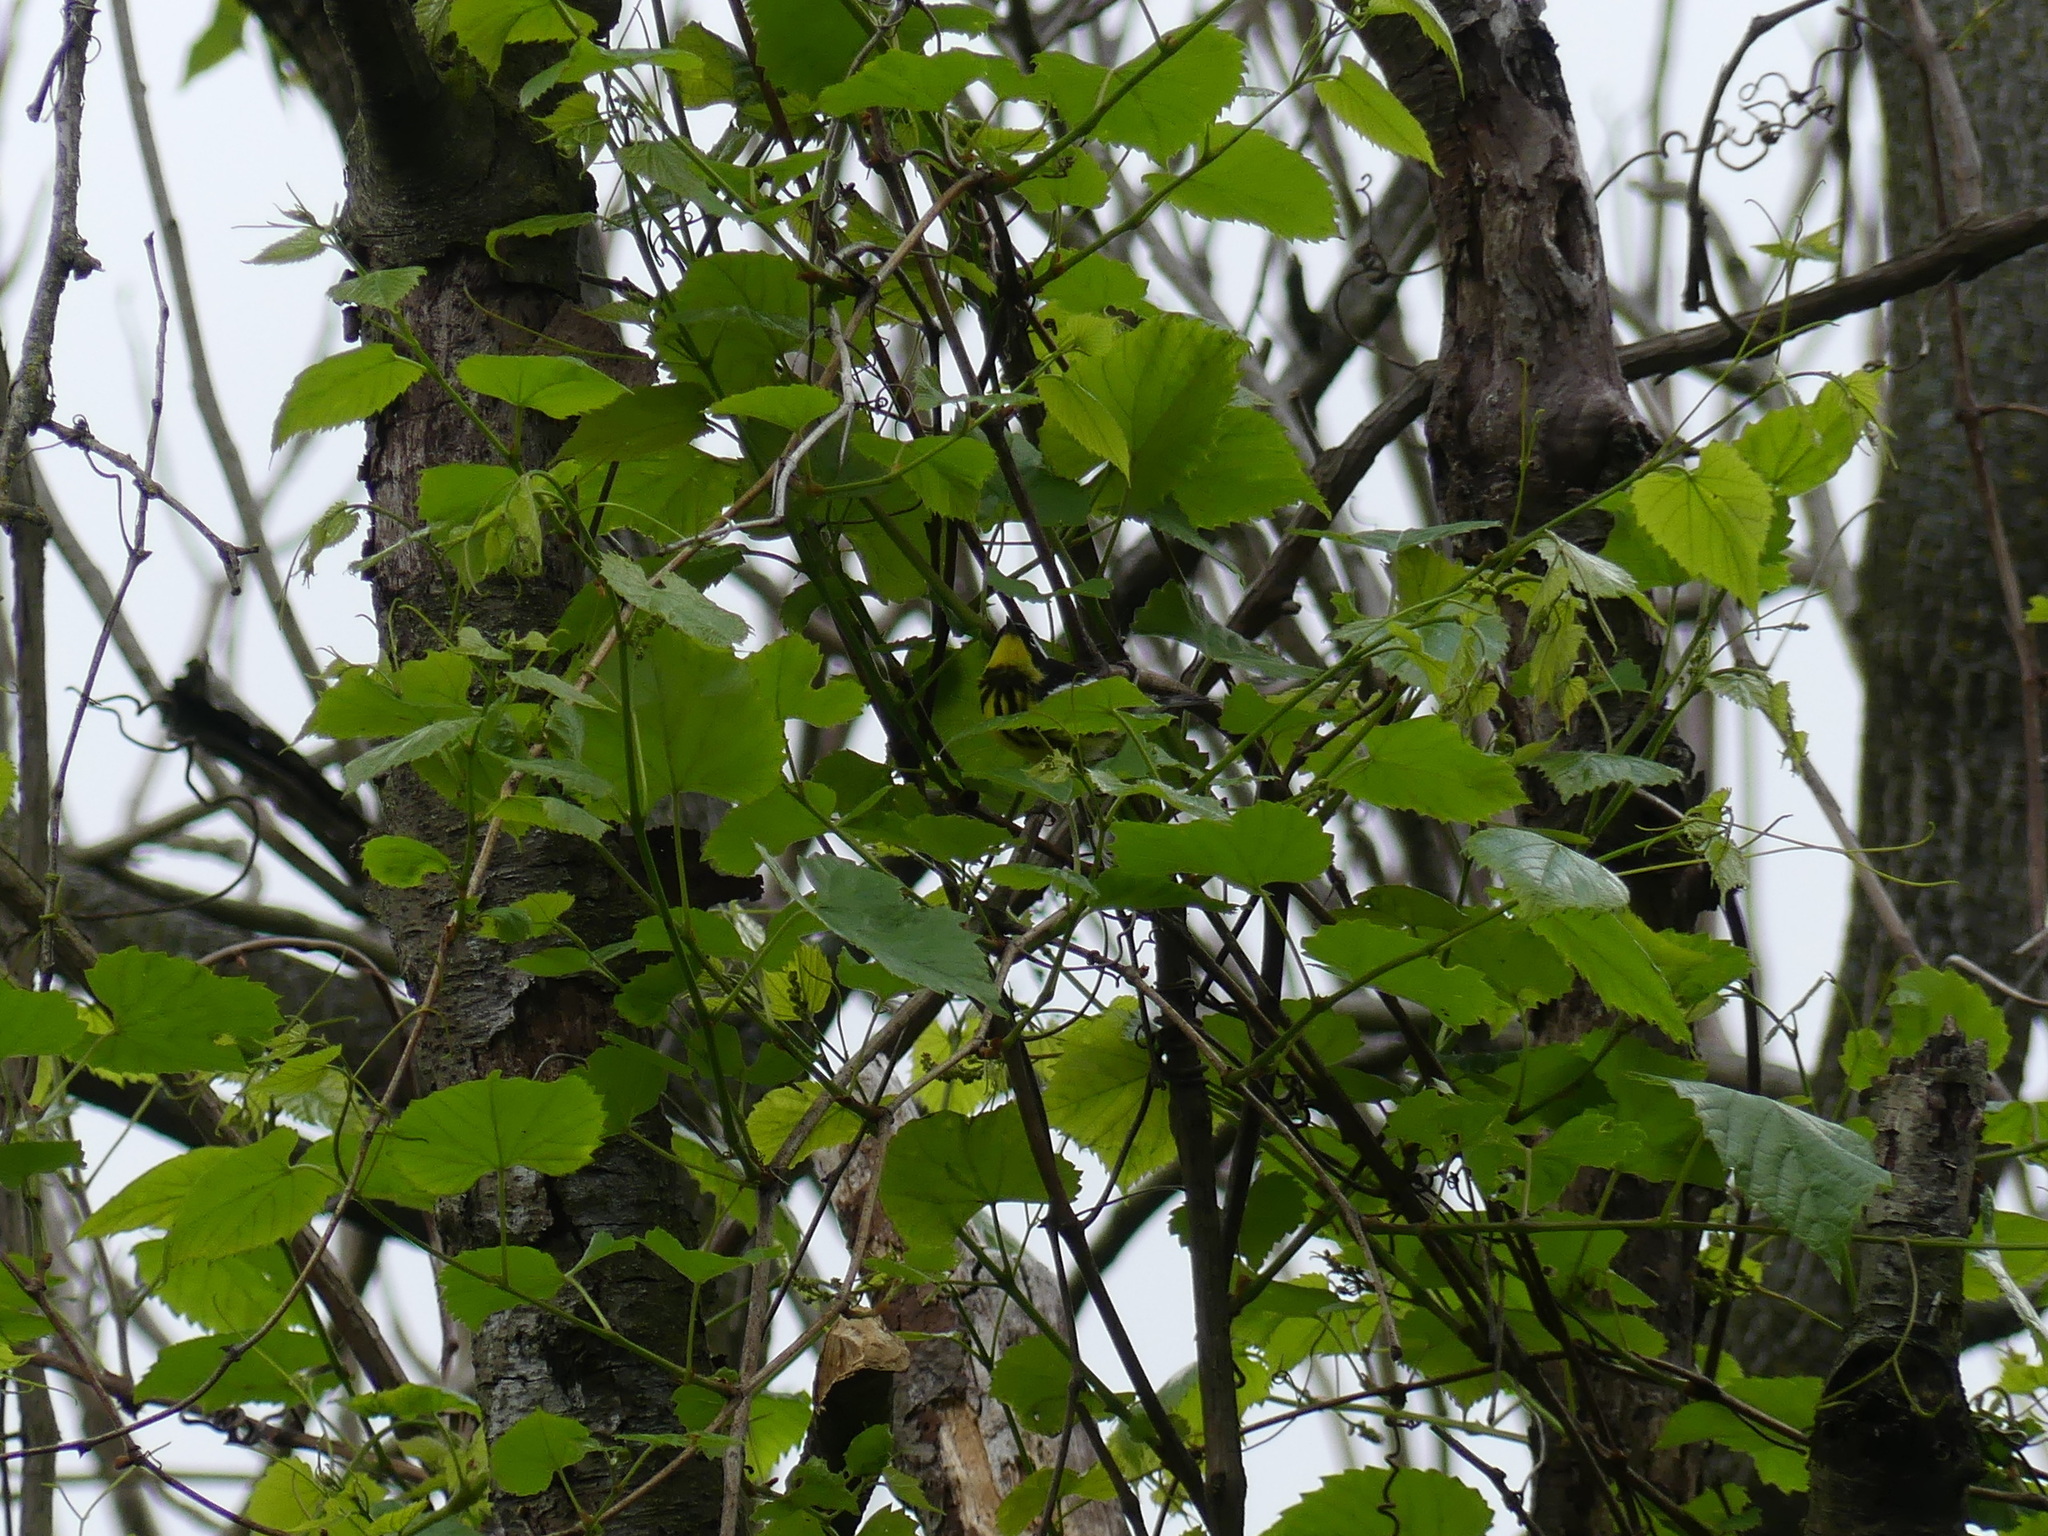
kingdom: Animalia
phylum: Chordata
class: Aves
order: Passeriformes
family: Parulidae
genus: Setophaga
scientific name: Setophaga magnolia
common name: Magnolia warbler
